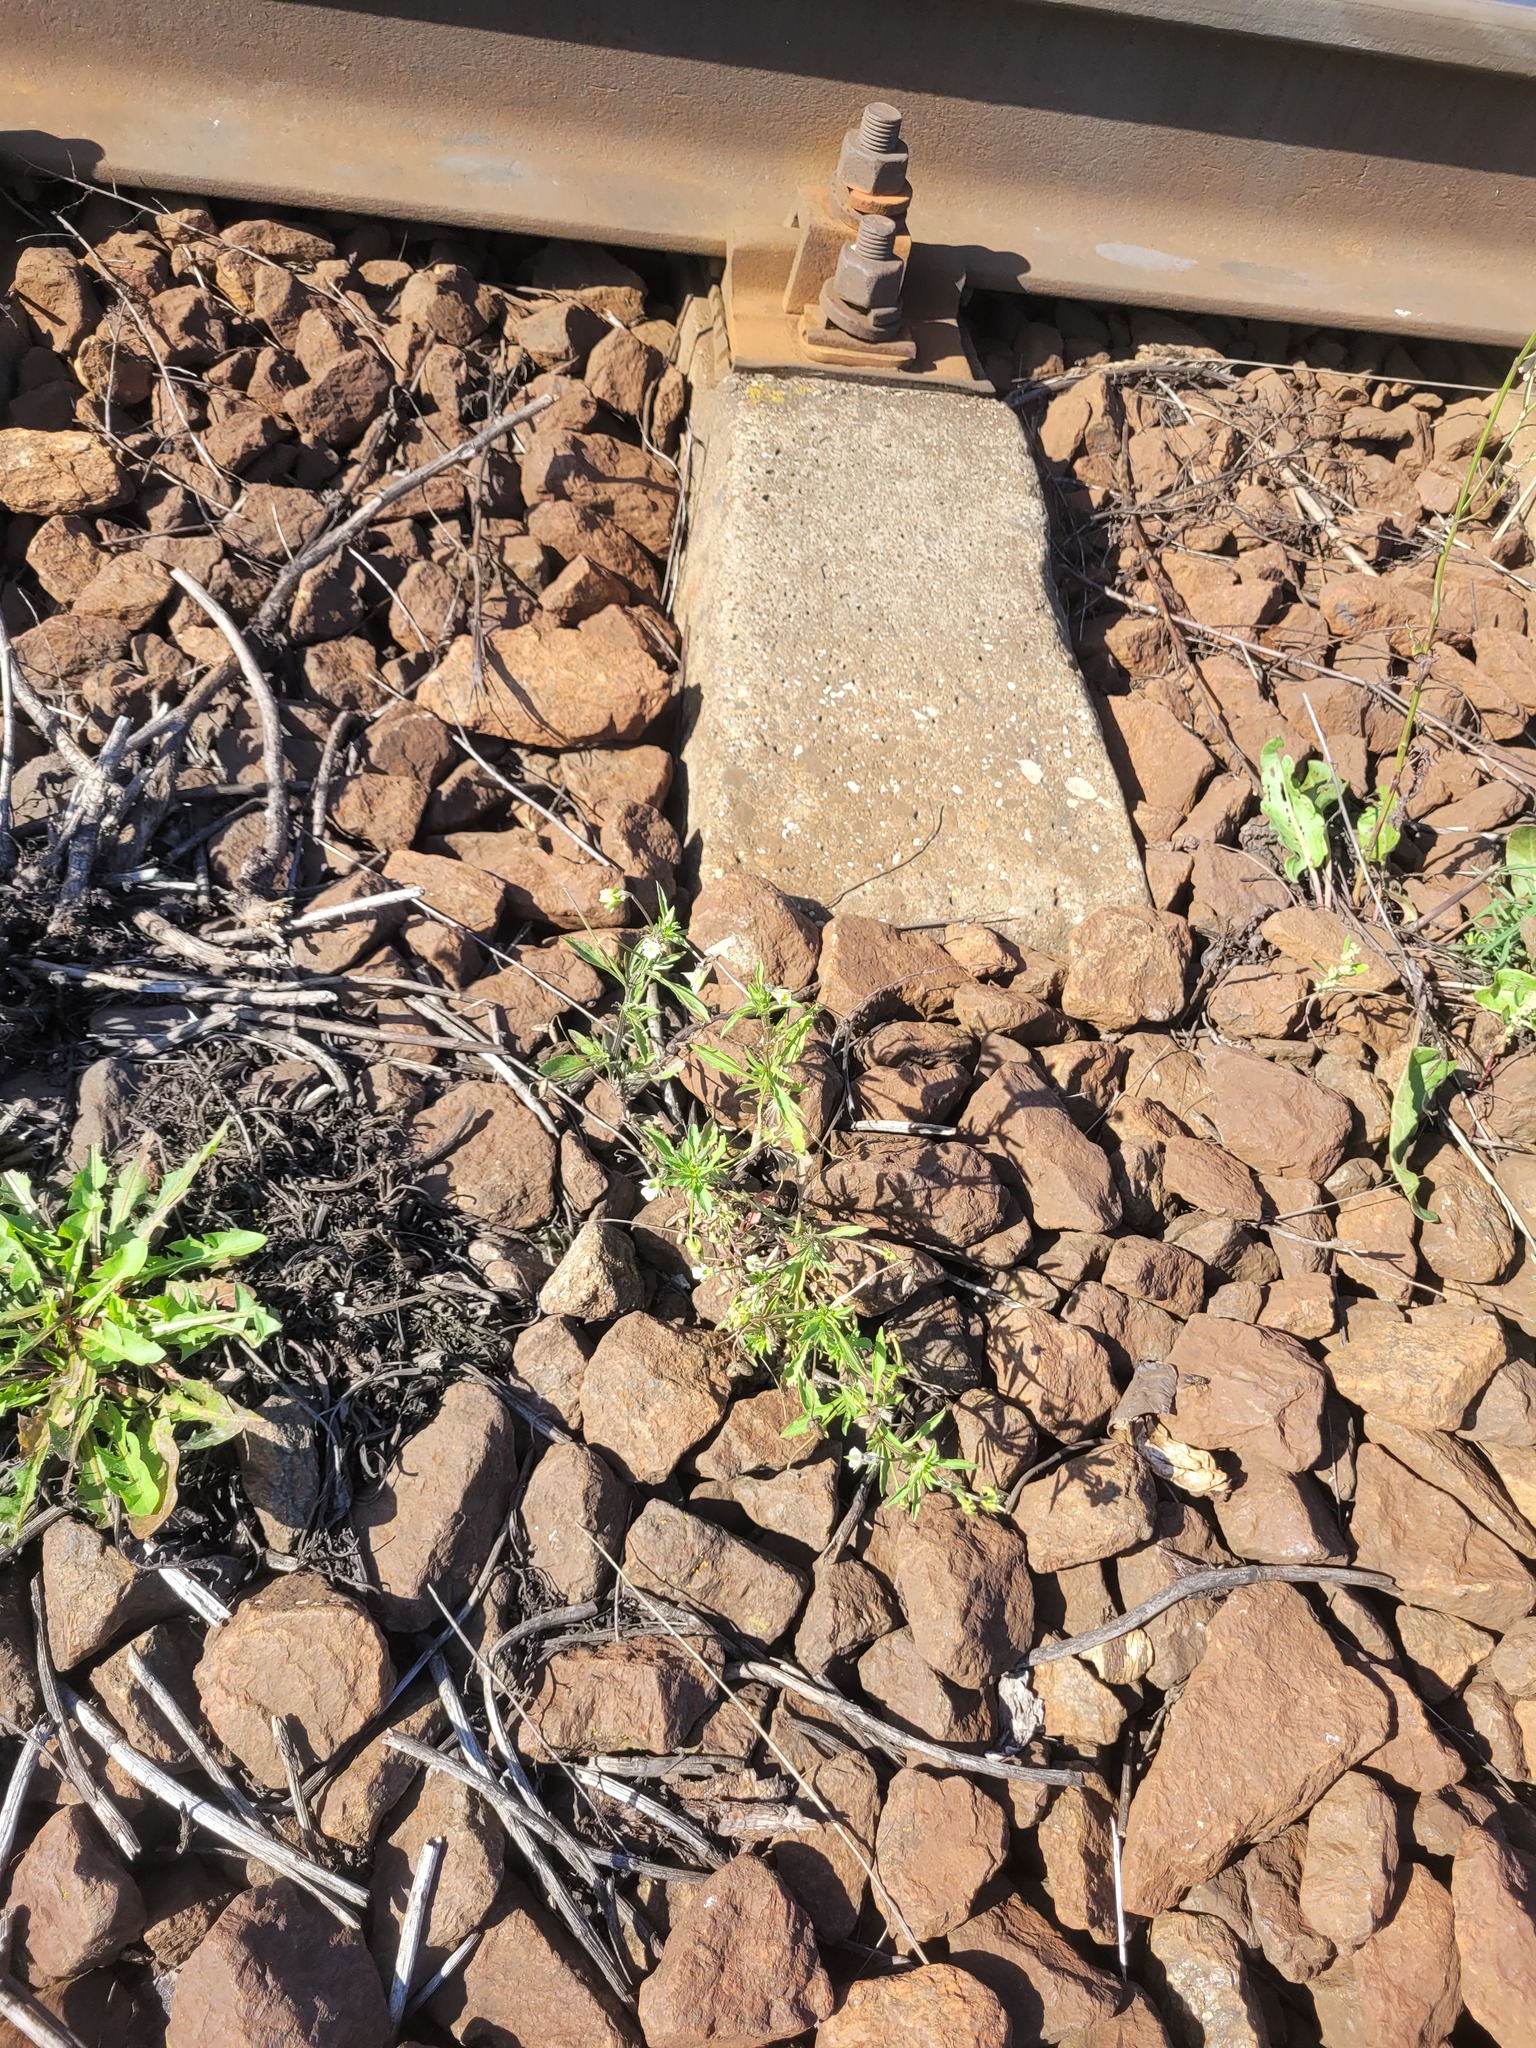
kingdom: Plantae
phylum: Tracheophyta
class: Magnoliopsida
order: Malpighiales
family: Violaceae
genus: Viola
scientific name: Viola arvensis
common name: Field pansy
